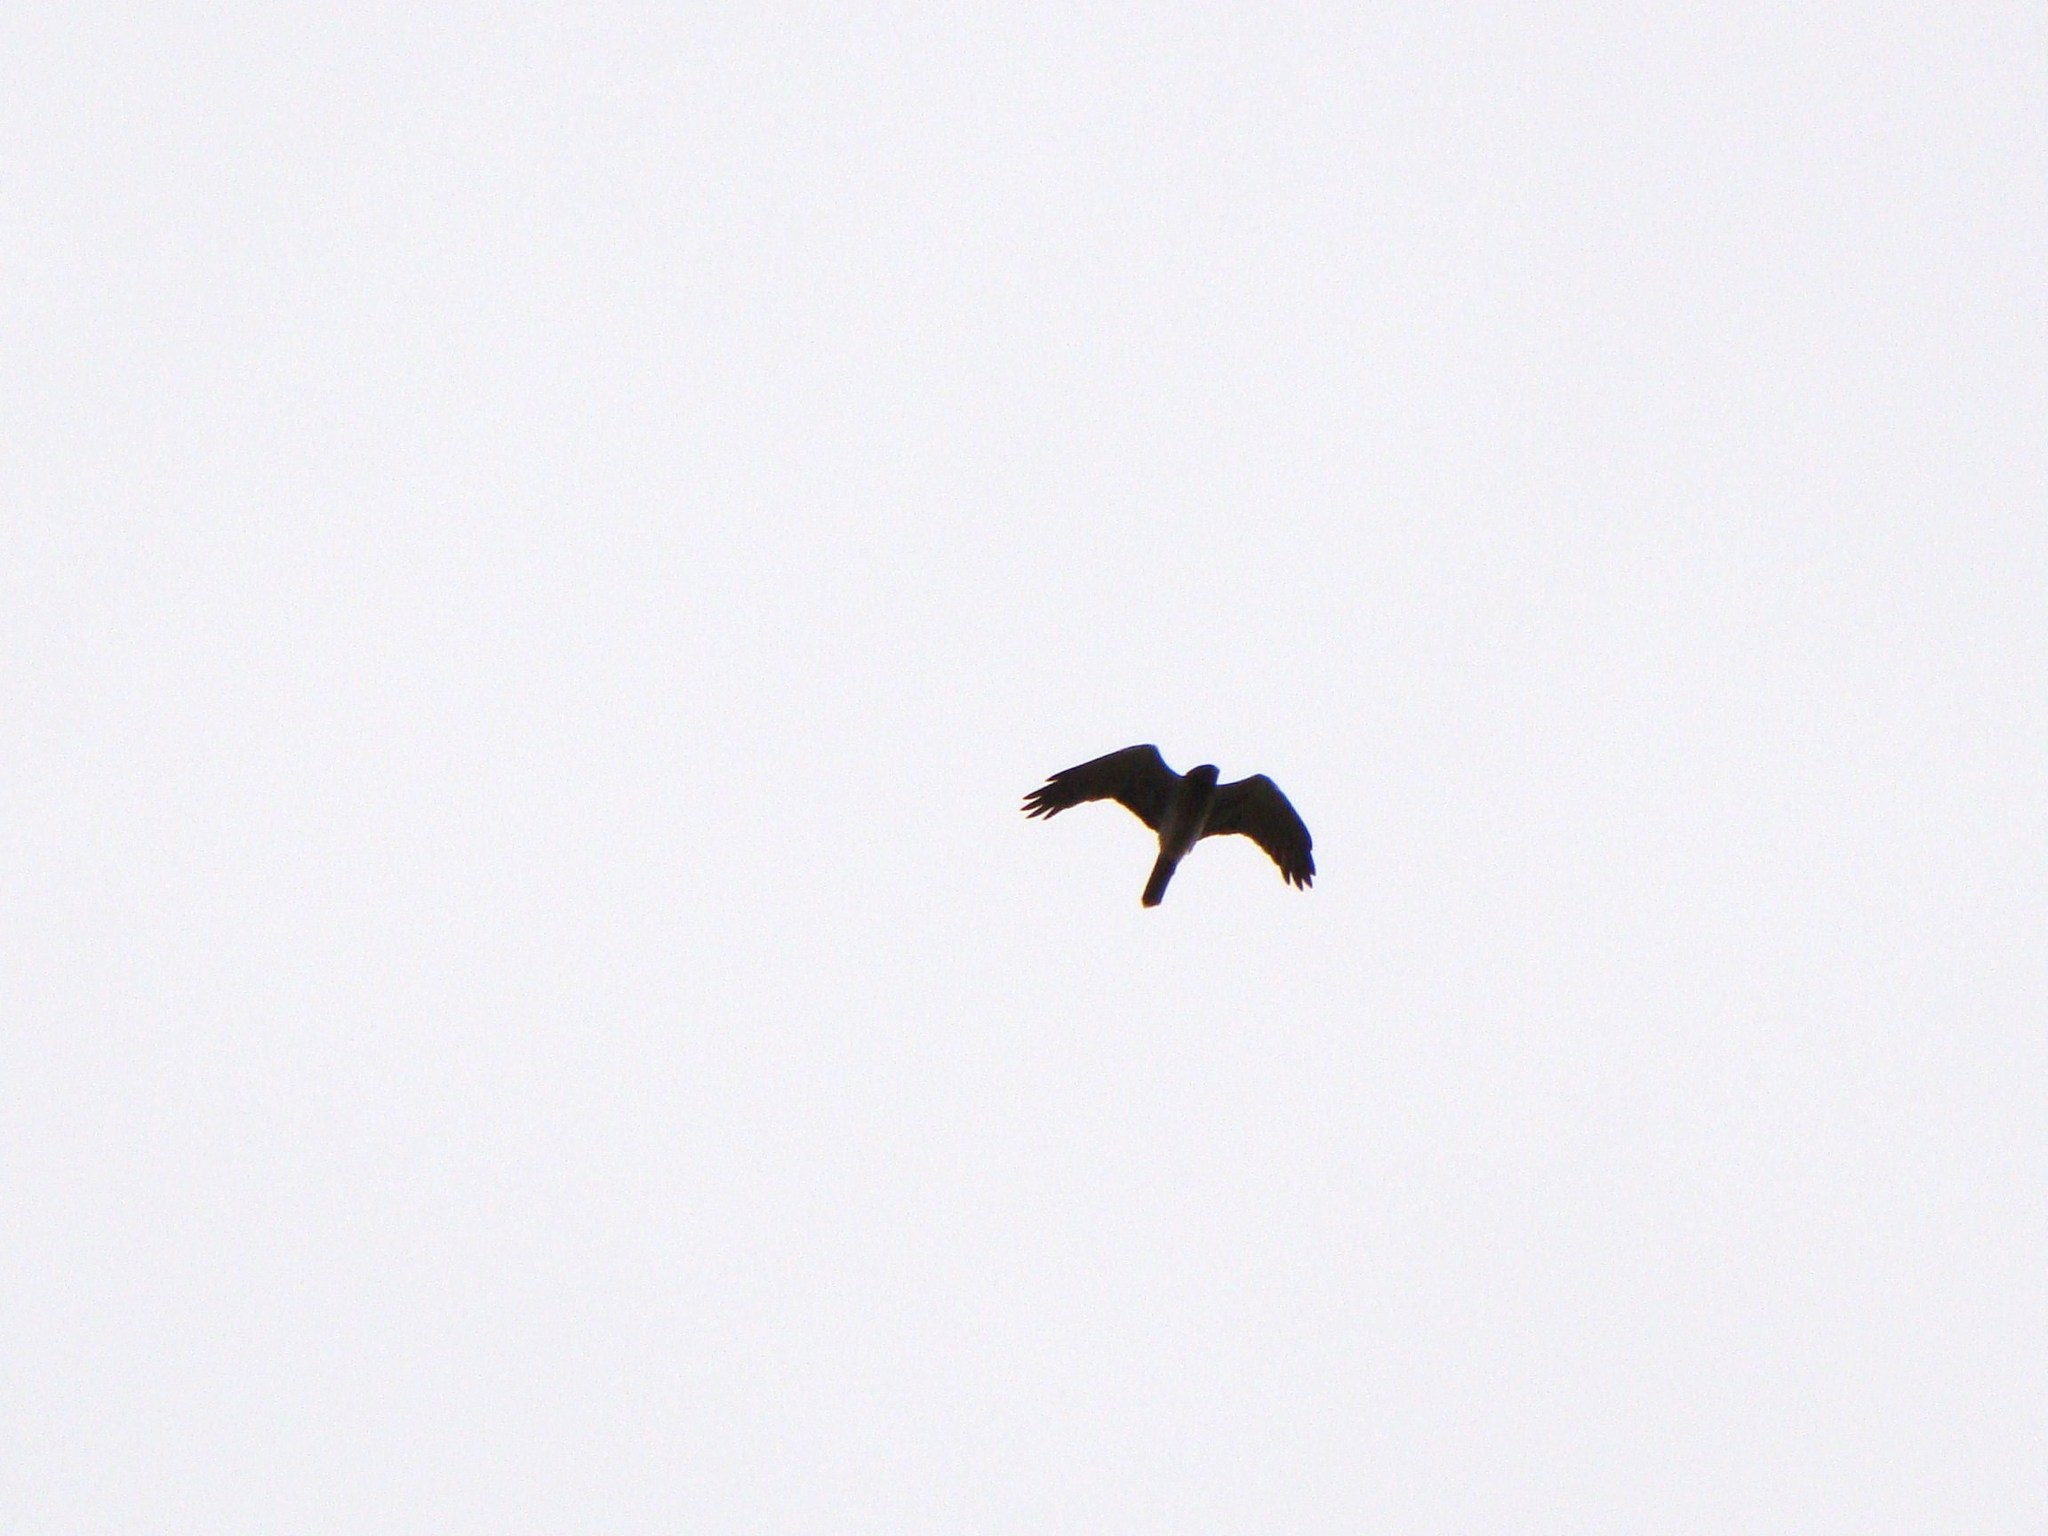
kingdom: Animalia
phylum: Chordata
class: Aves
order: Falconiformes
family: Falconidae
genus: Falco
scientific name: Falco novaeseelandiae
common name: New zealand falcon
